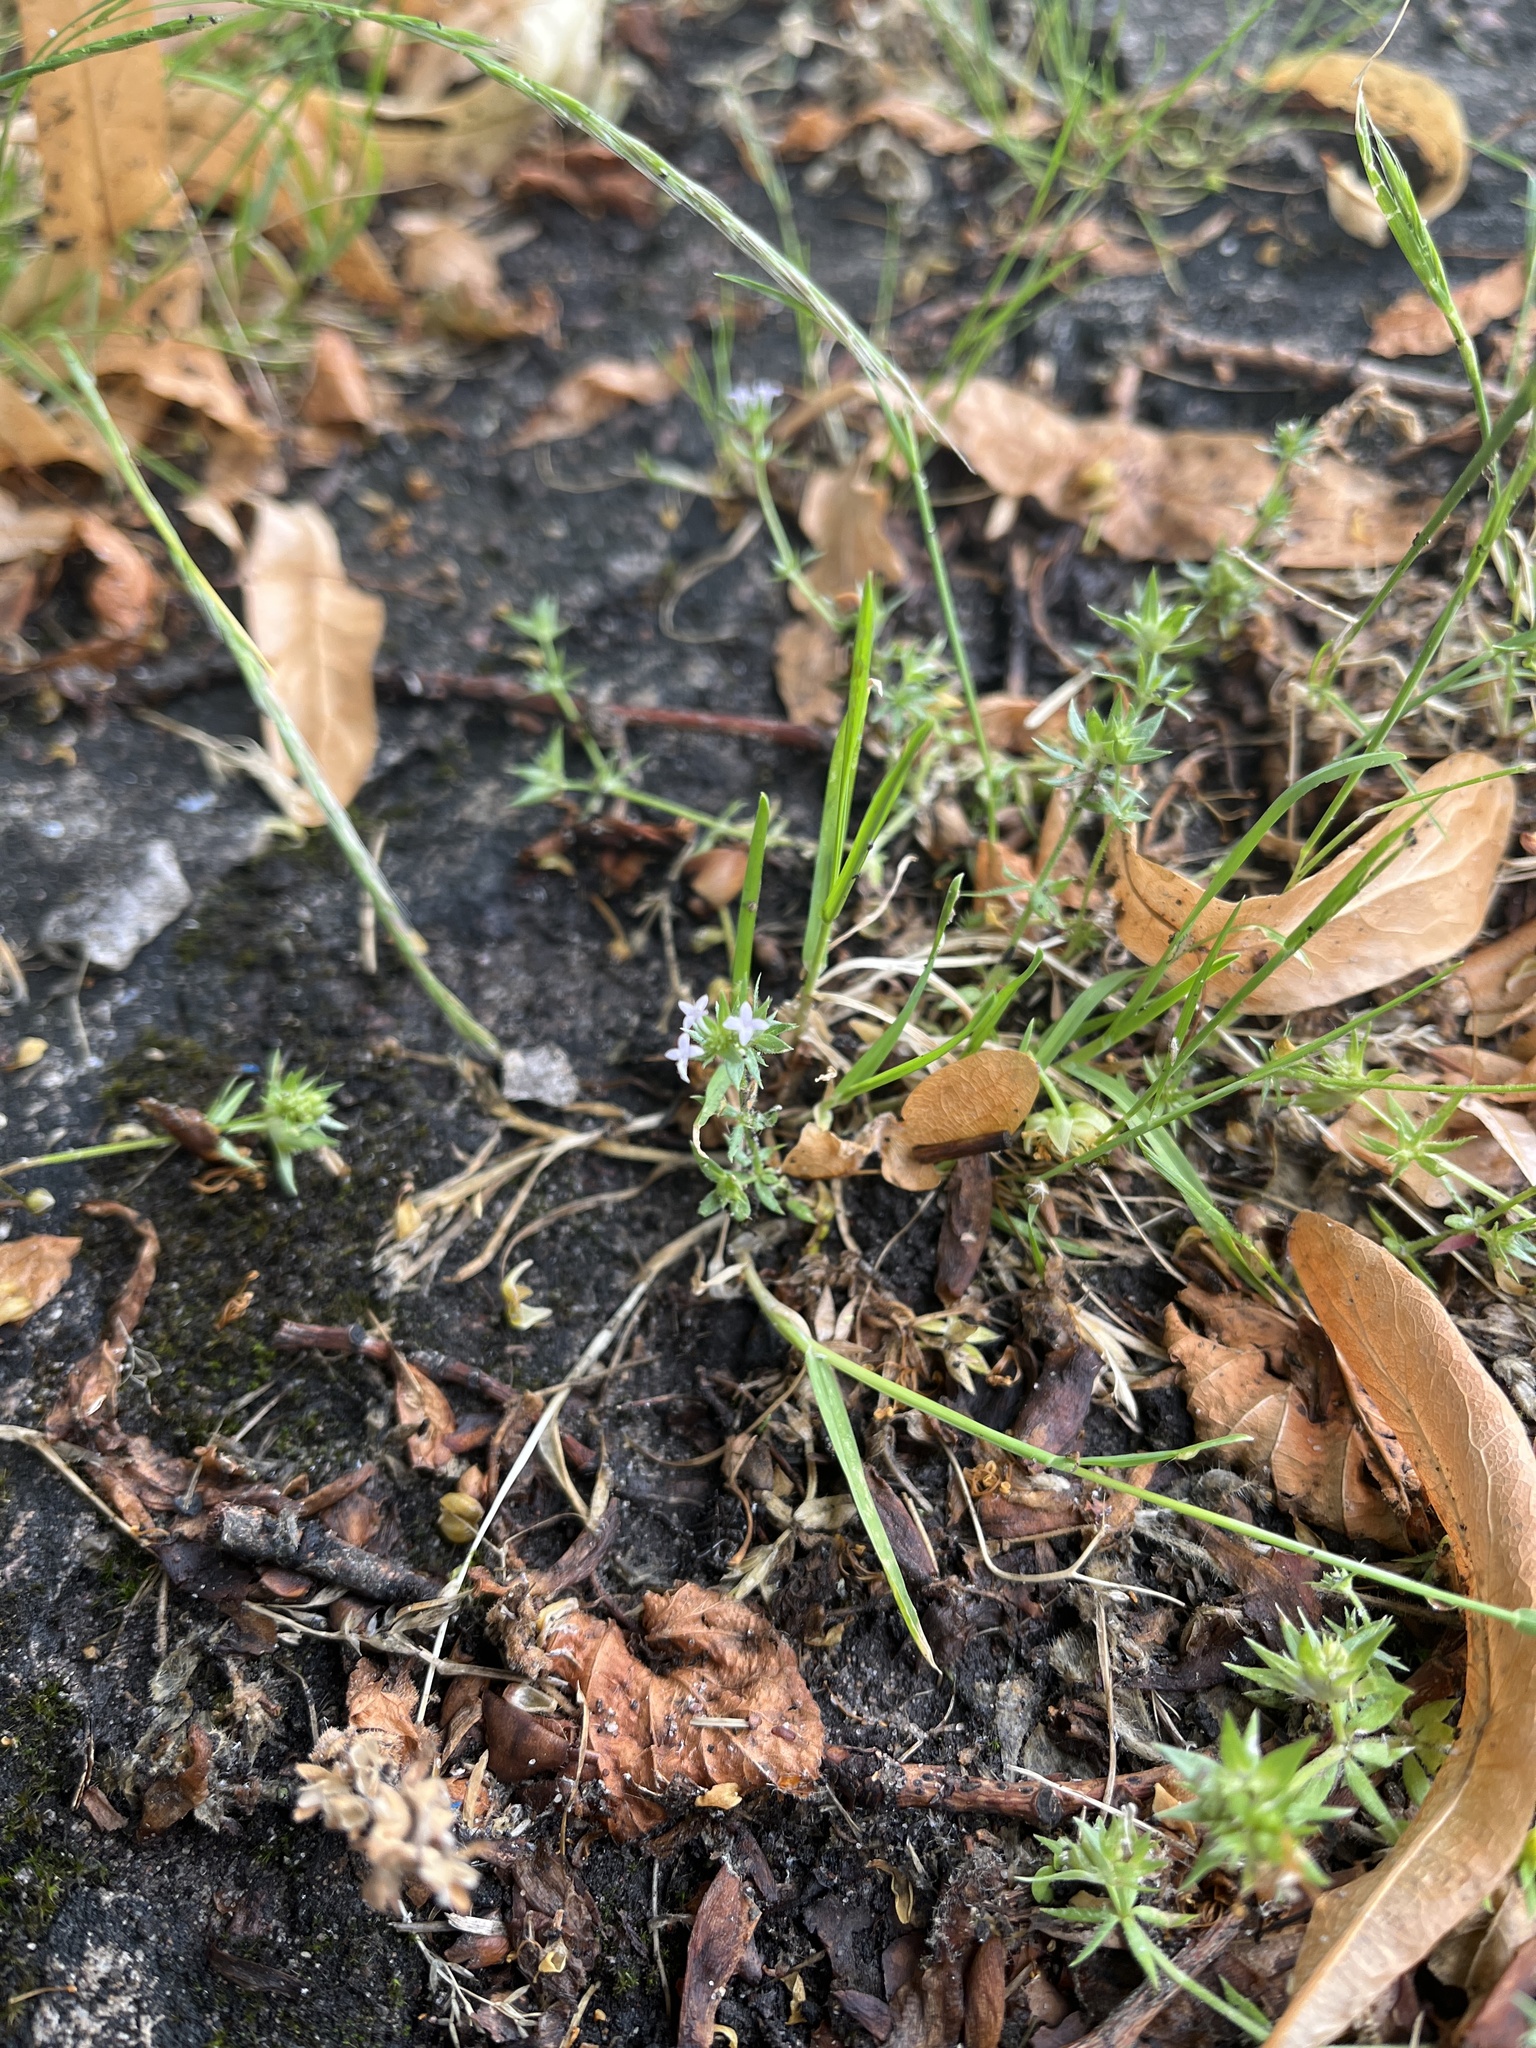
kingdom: Plantae
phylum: Tracheophyta
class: Magnoliopsida
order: Gentianales
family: Rubiaceae
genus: Sherardia
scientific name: Sherardia arvensis
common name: Field madder
